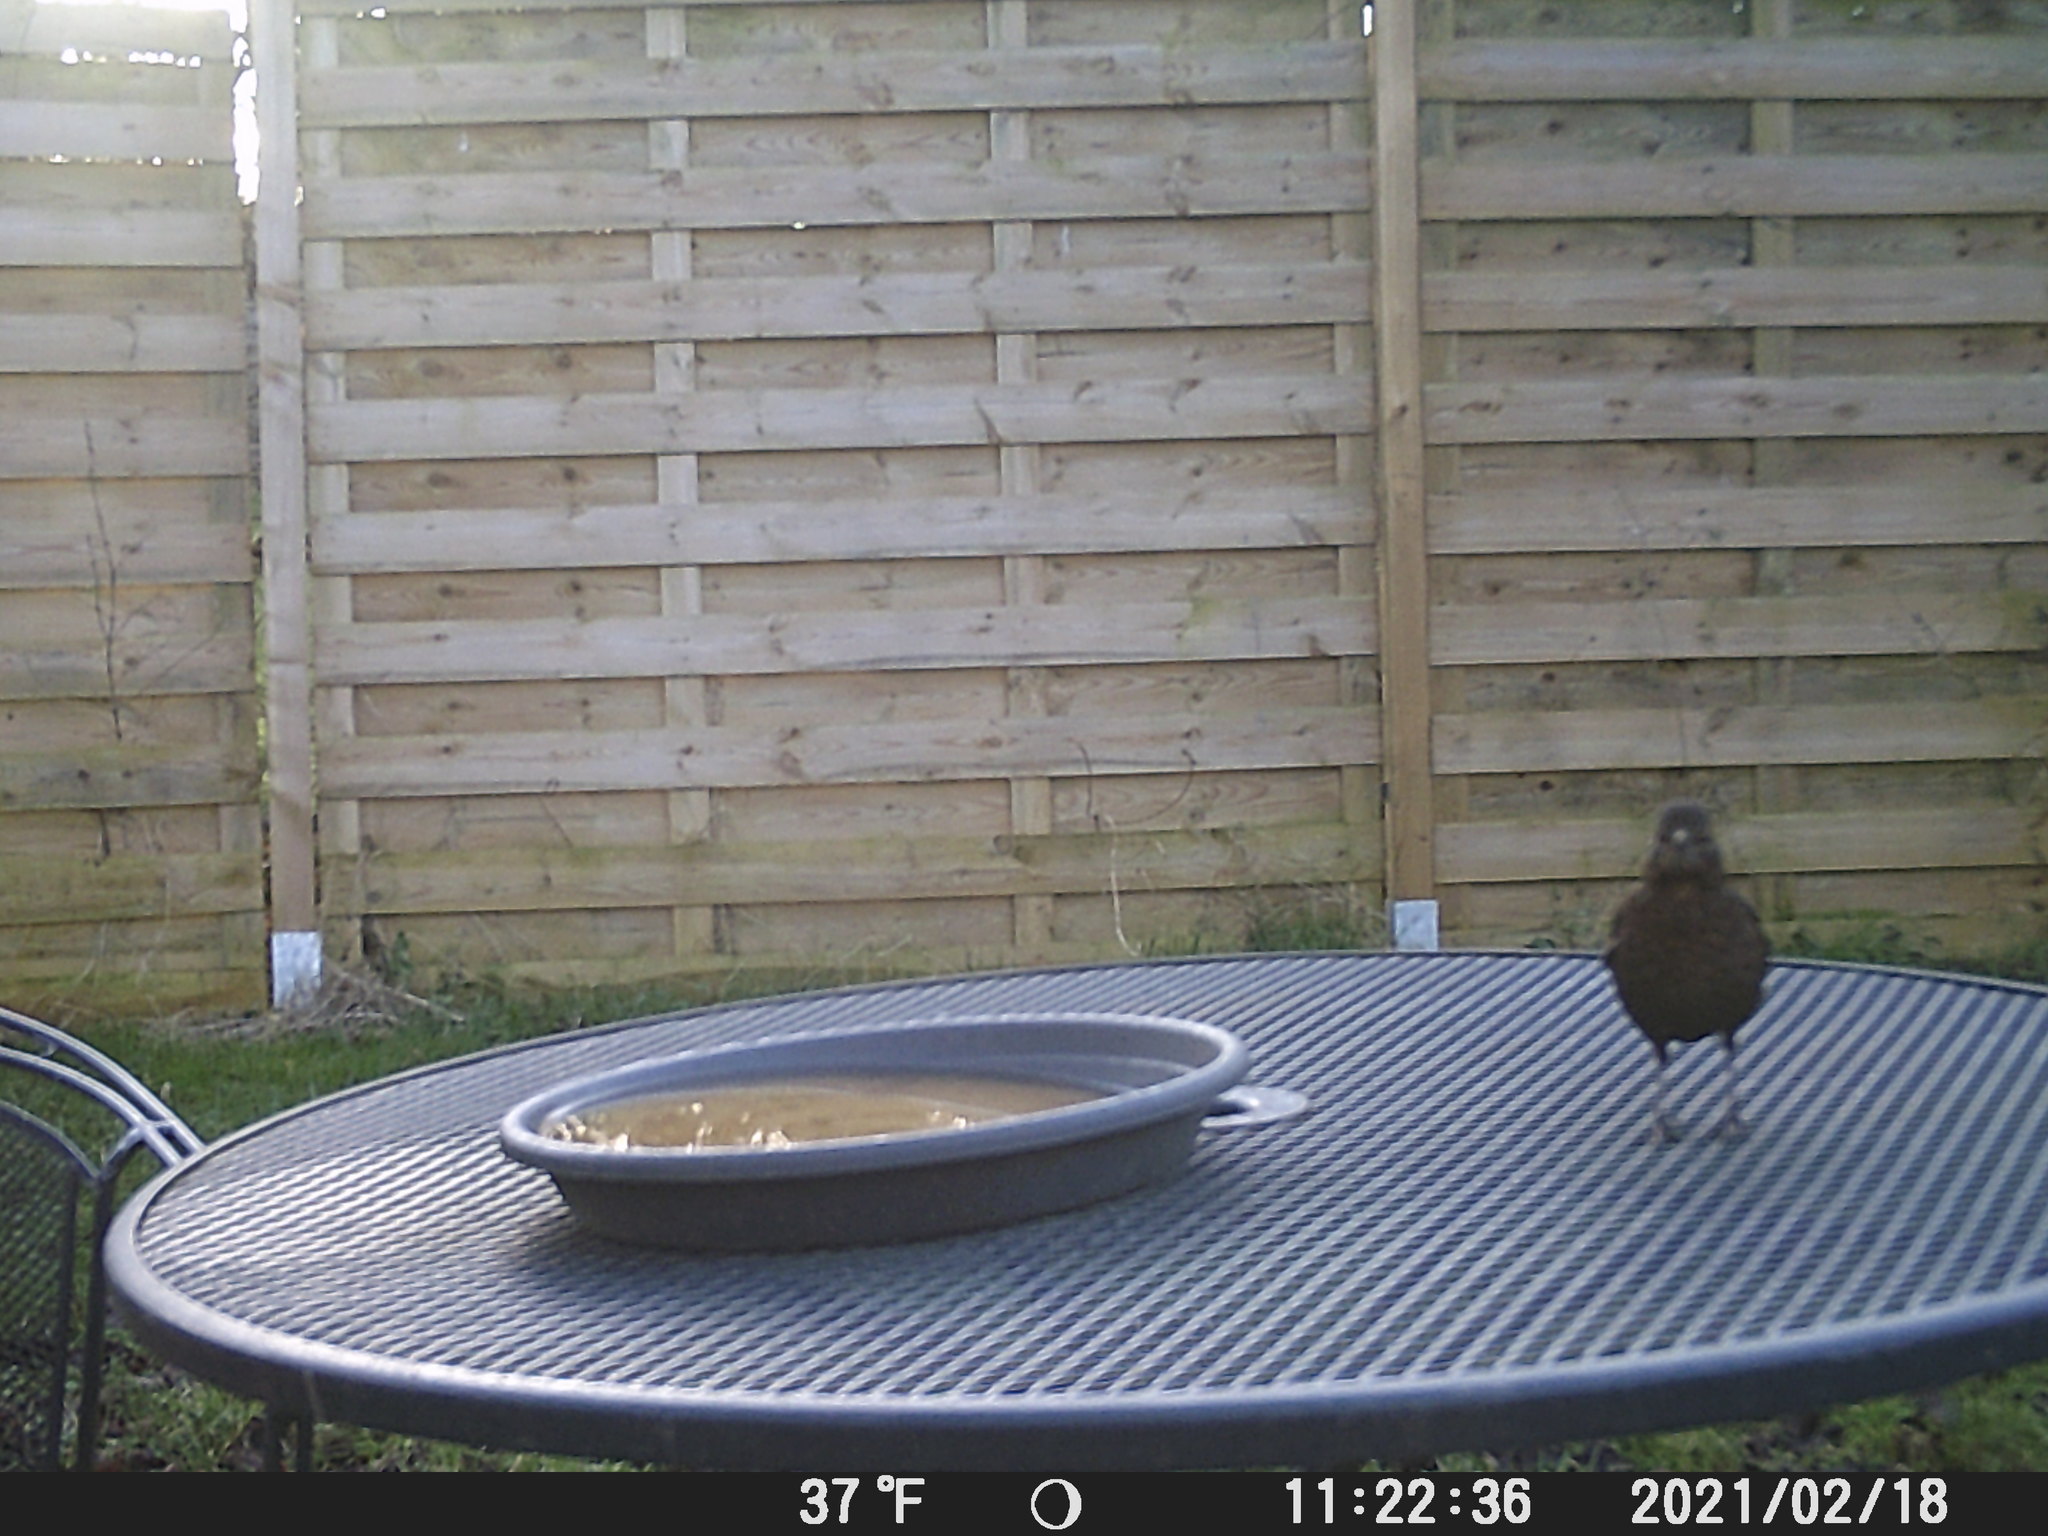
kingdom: Animalia
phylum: Chordata
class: Aves
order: Passeriformes
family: Turdidae
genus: Turdus
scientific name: Turdus merula
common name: Common blackbird
